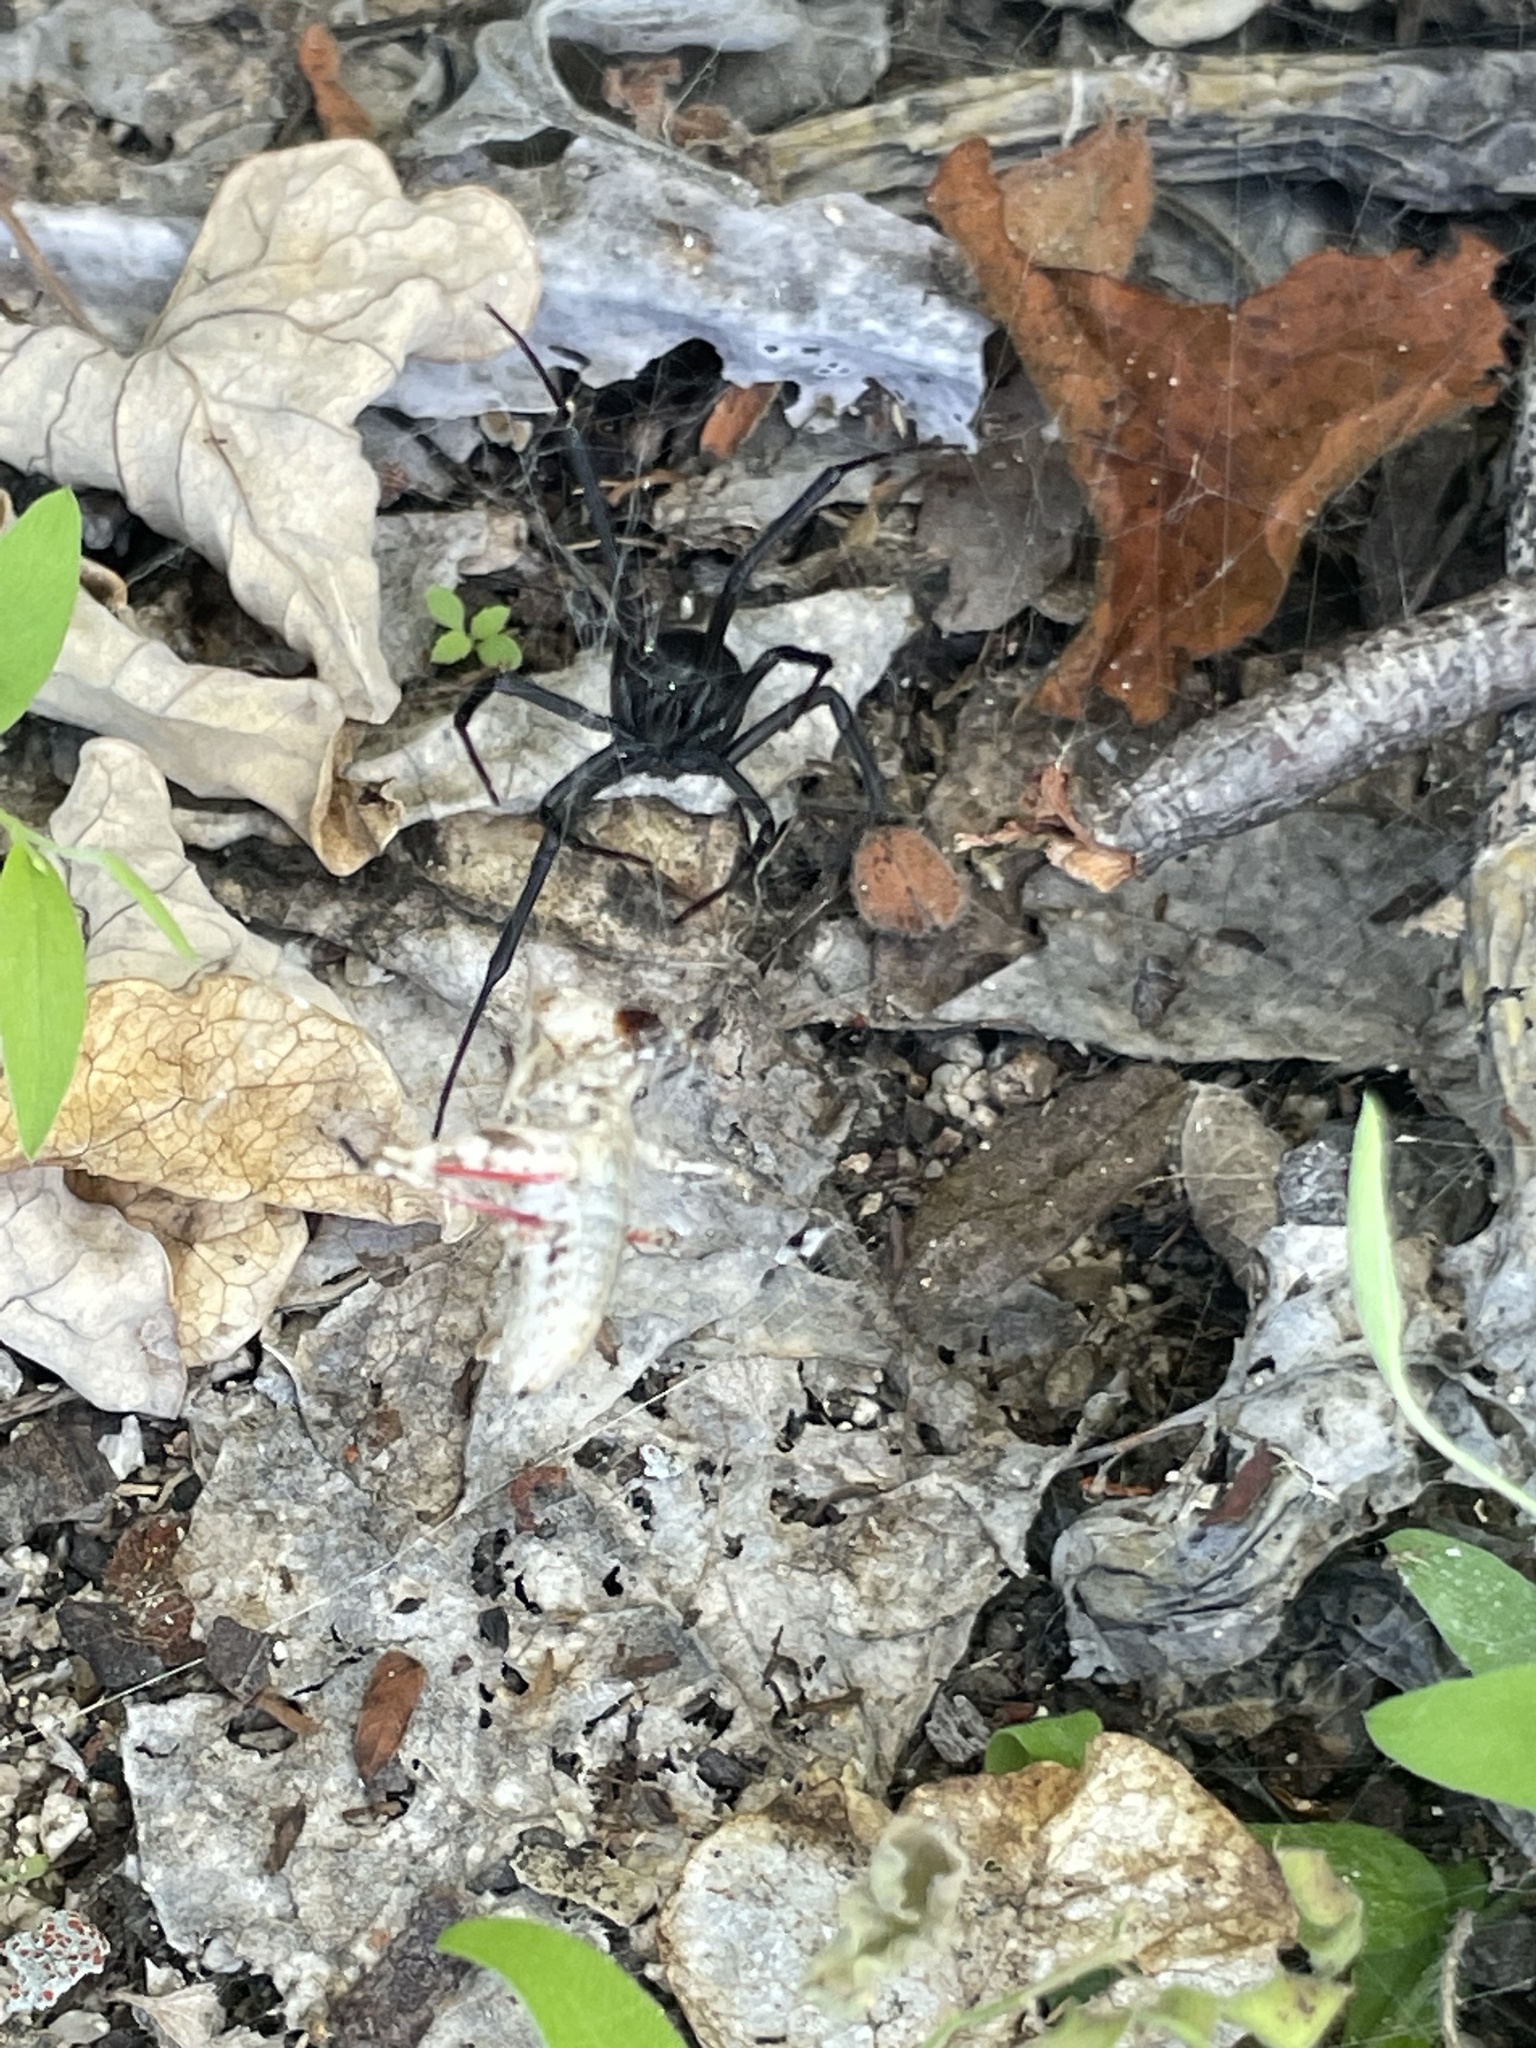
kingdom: Animalia
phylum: Arthropoda
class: Arachnida
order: Araneae
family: Theridiidae
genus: Latrodectus
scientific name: Latrodectus hesperus
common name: Western black widow
